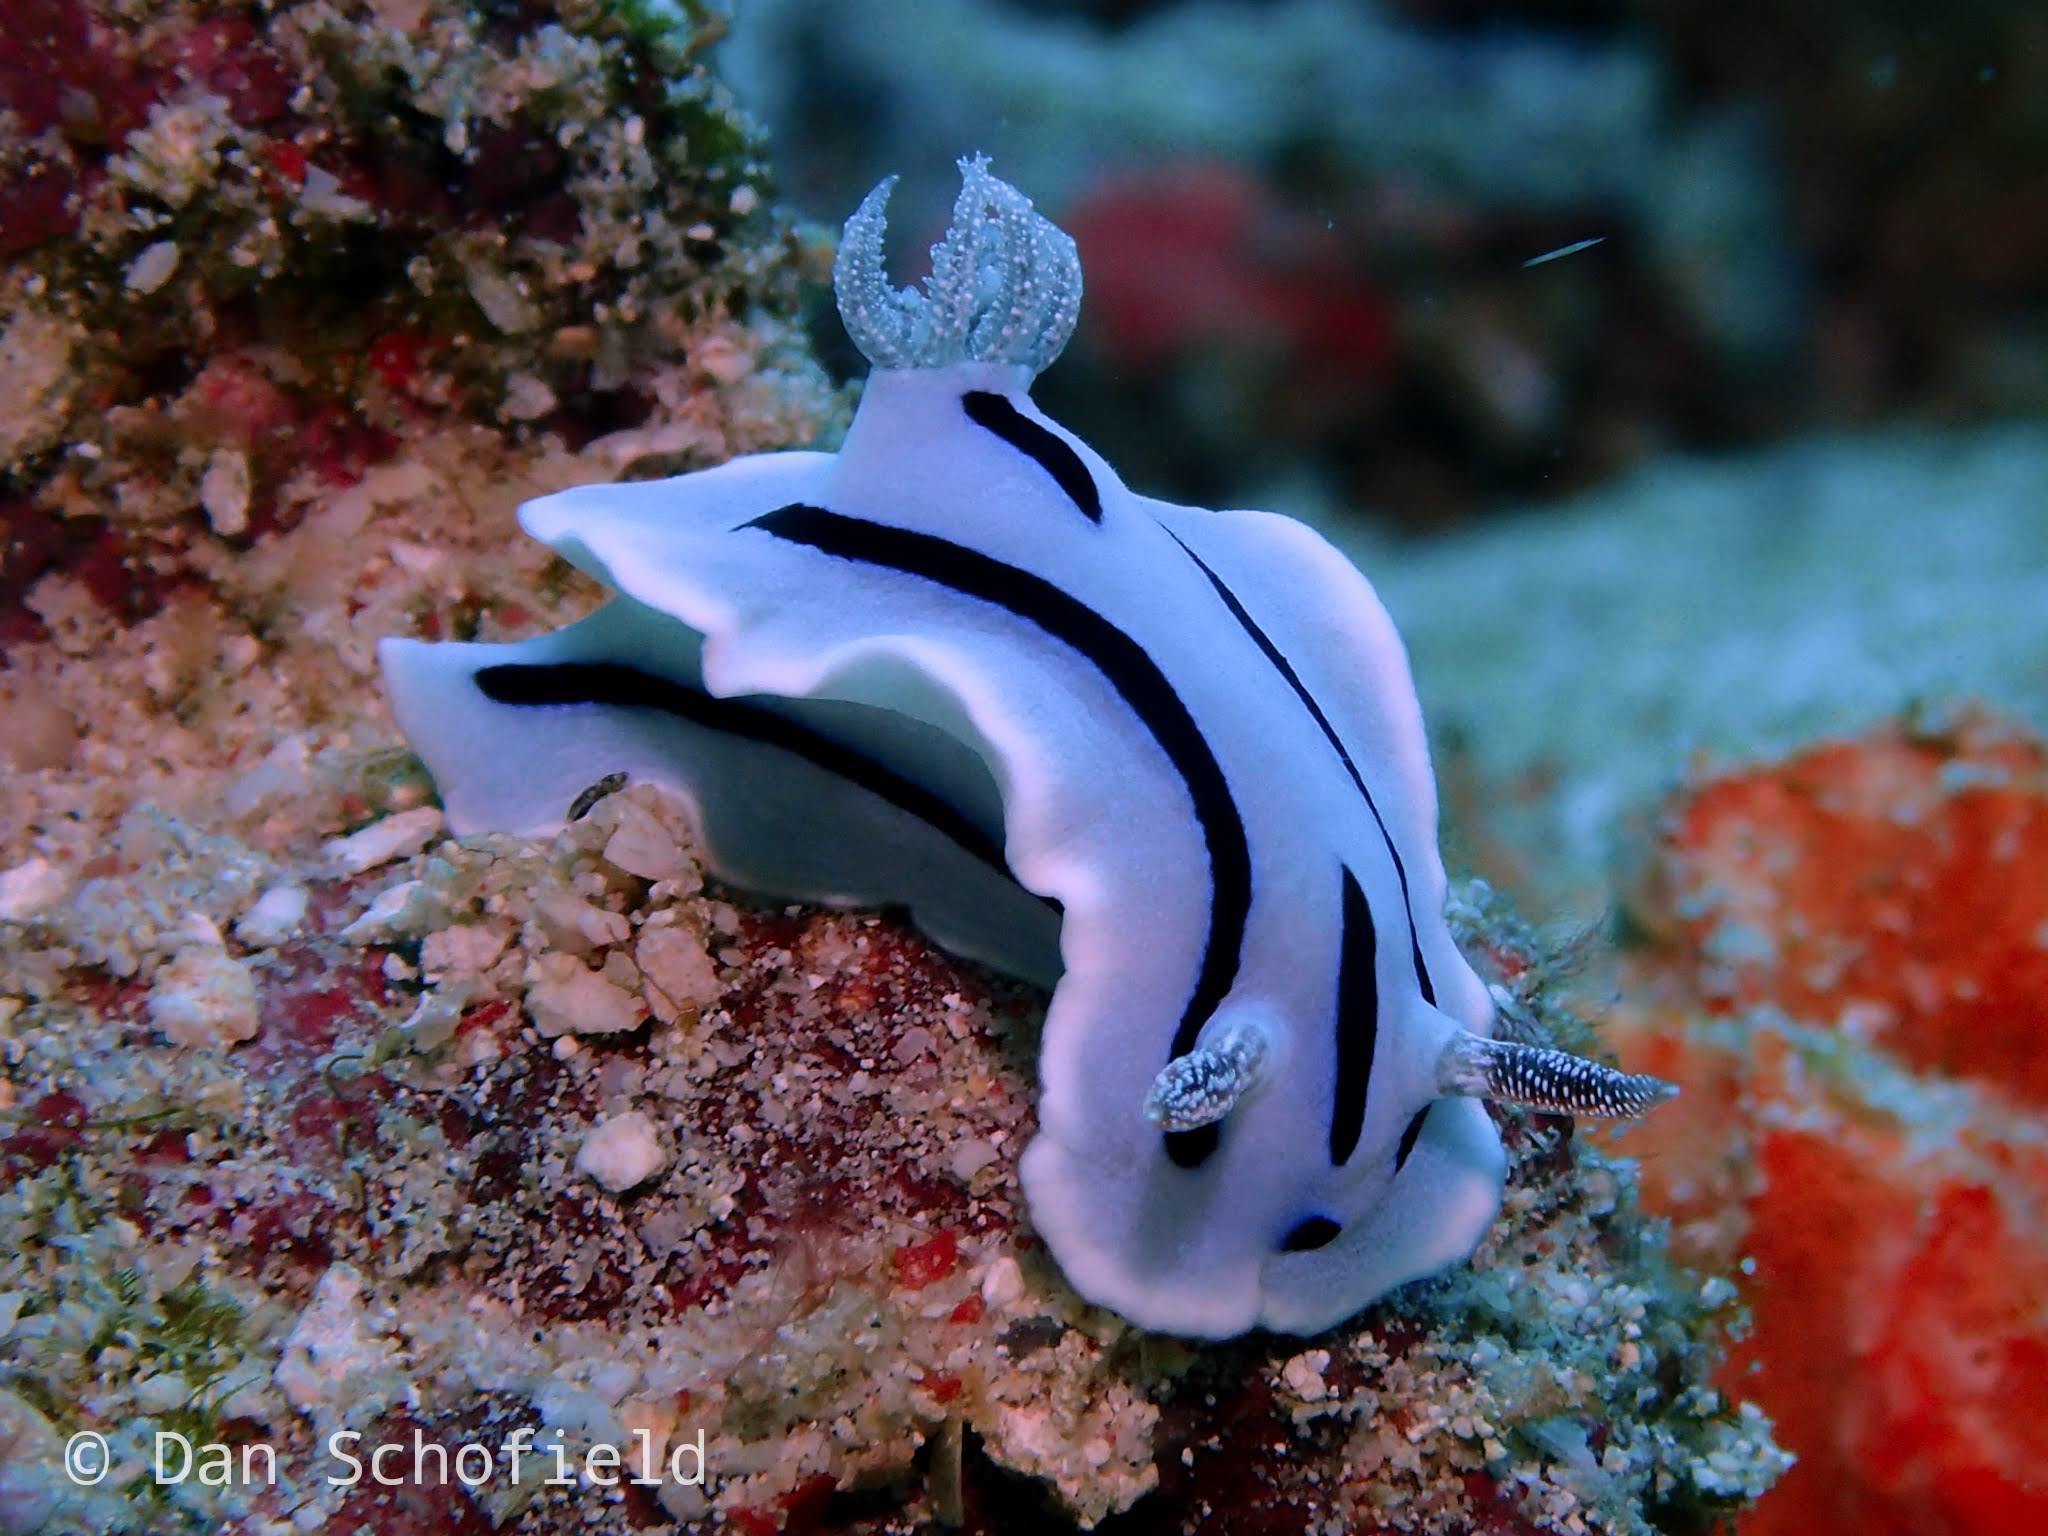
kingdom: Animalia
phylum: Mollusca
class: Gastropoda
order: Nudibranchia
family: Chromodorididae
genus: Chromodoris
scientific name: Chromodoris willani
